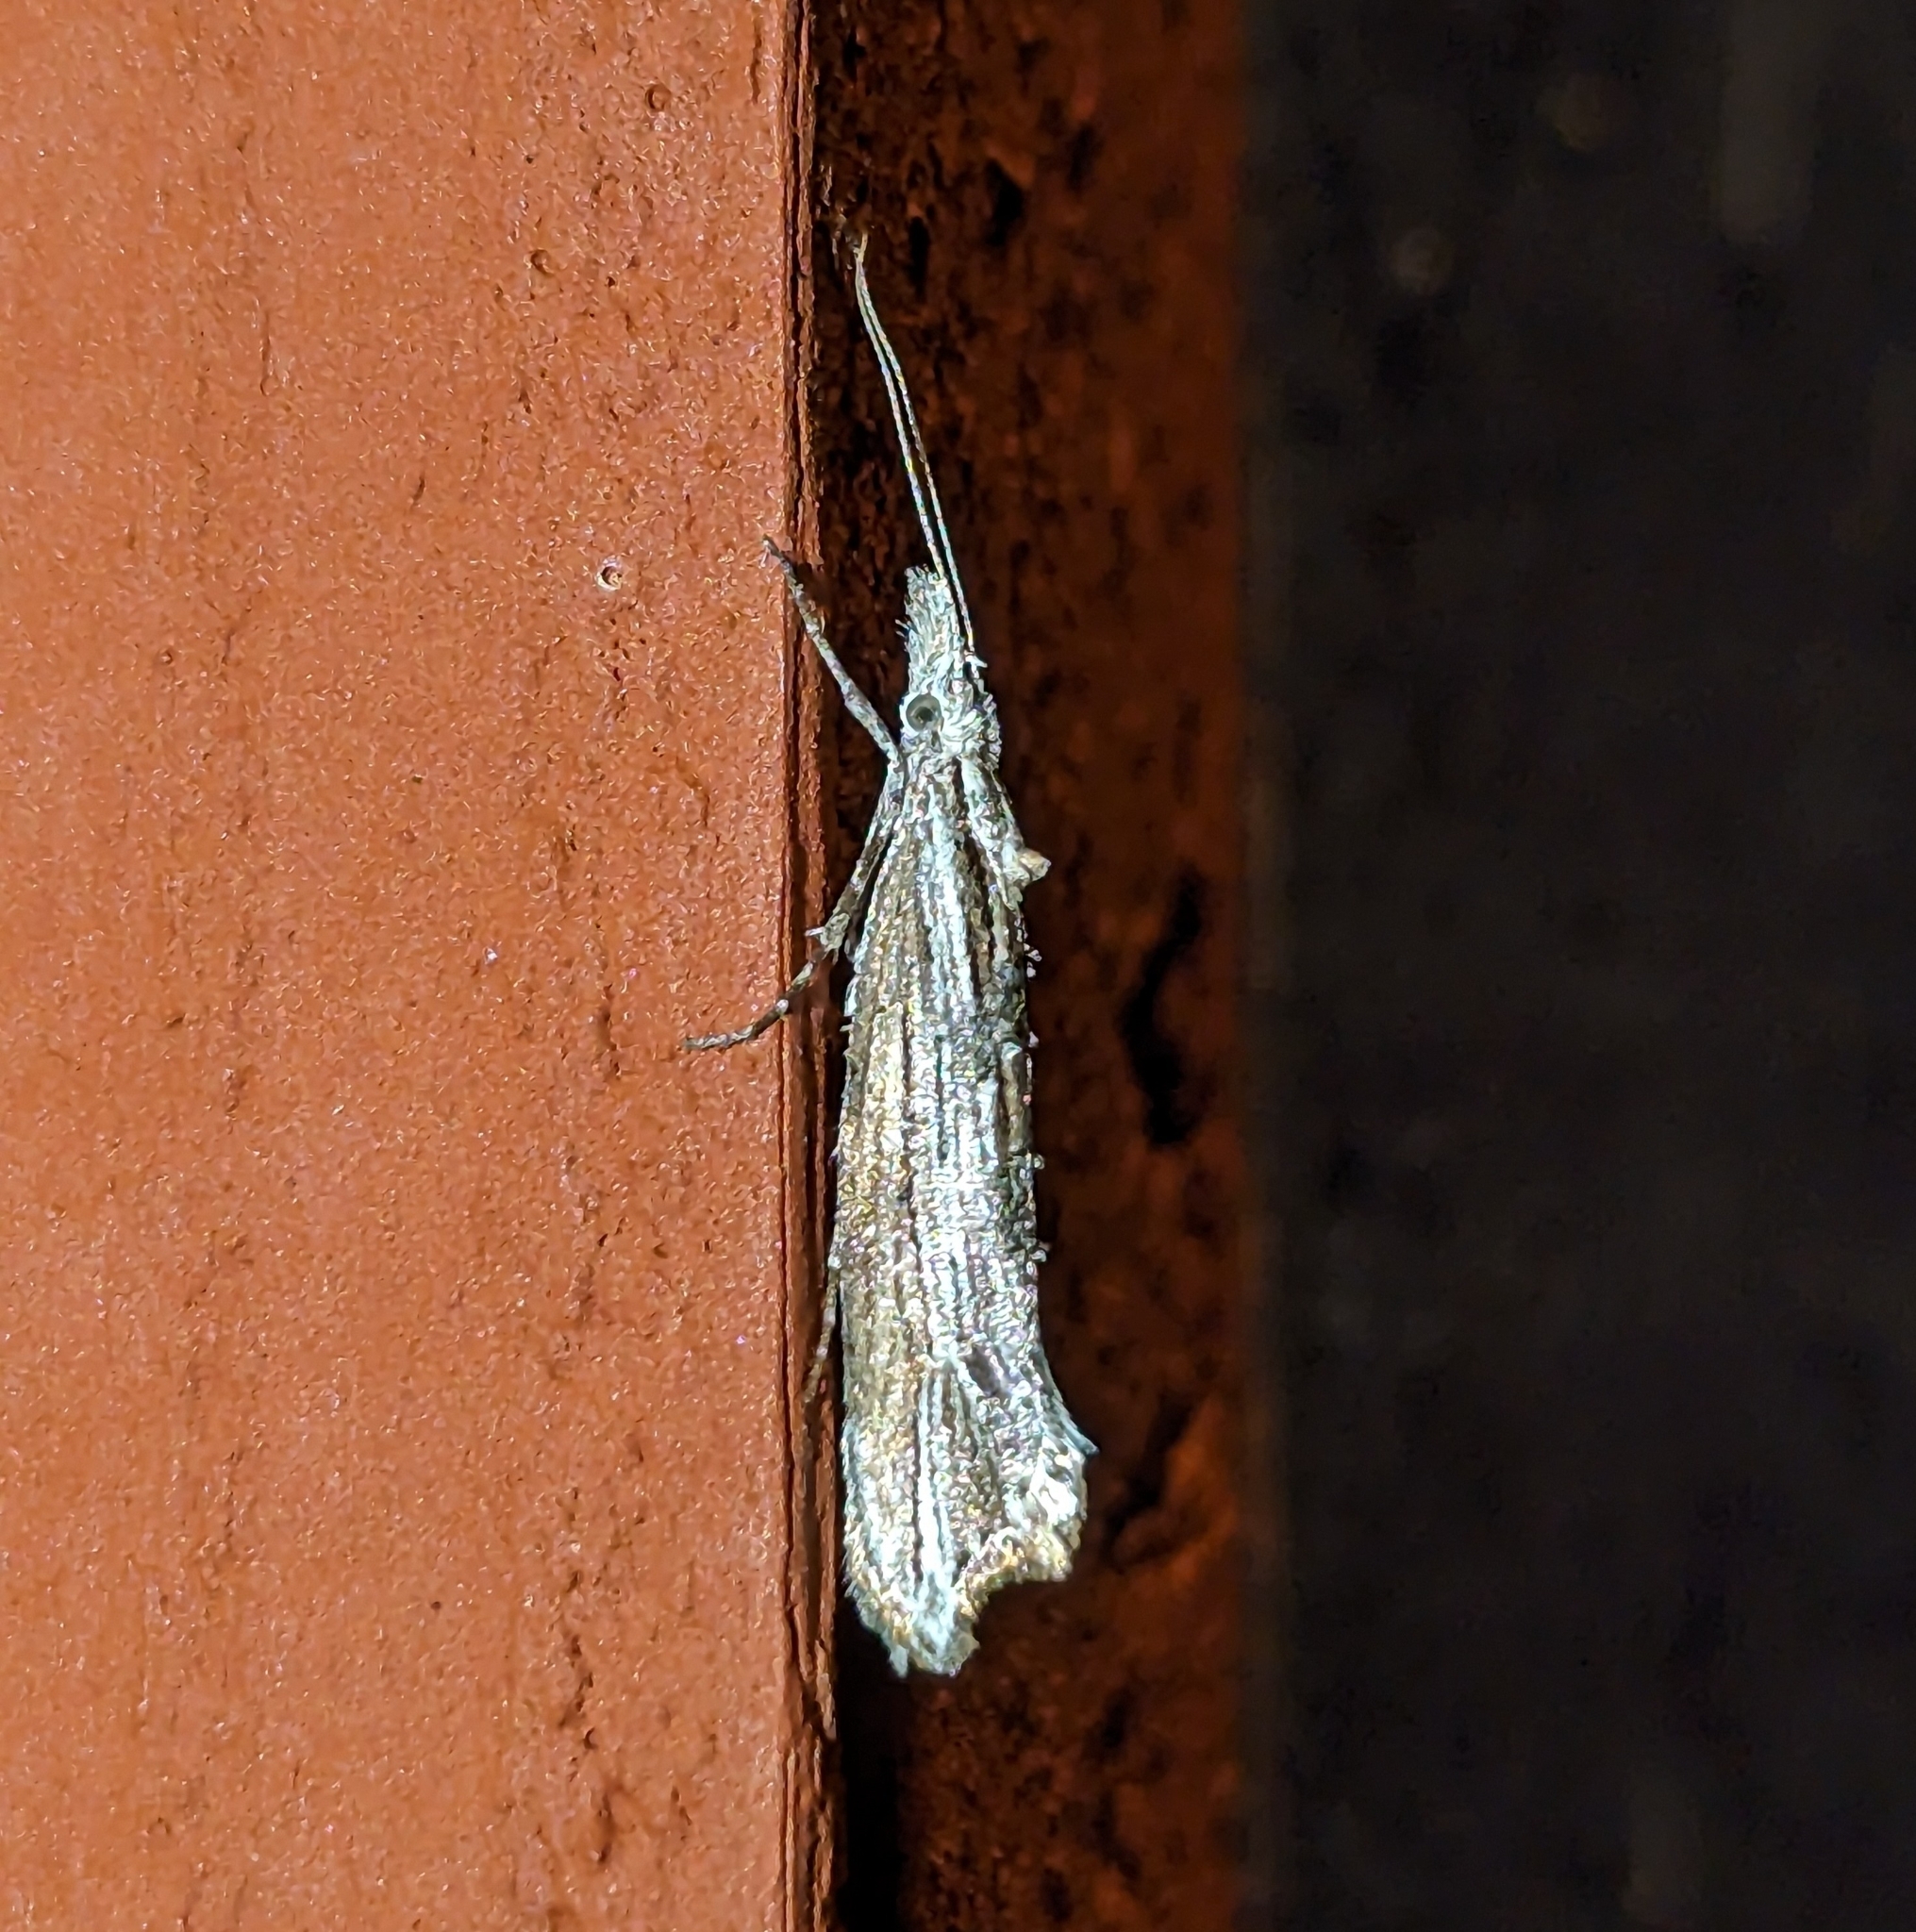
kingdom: Animalia
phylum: Arthropoda
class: Insecta
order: Lepidoptera
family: Ypsolophidae
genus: Ypsolopha
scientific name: Ypsolopha falciferella
